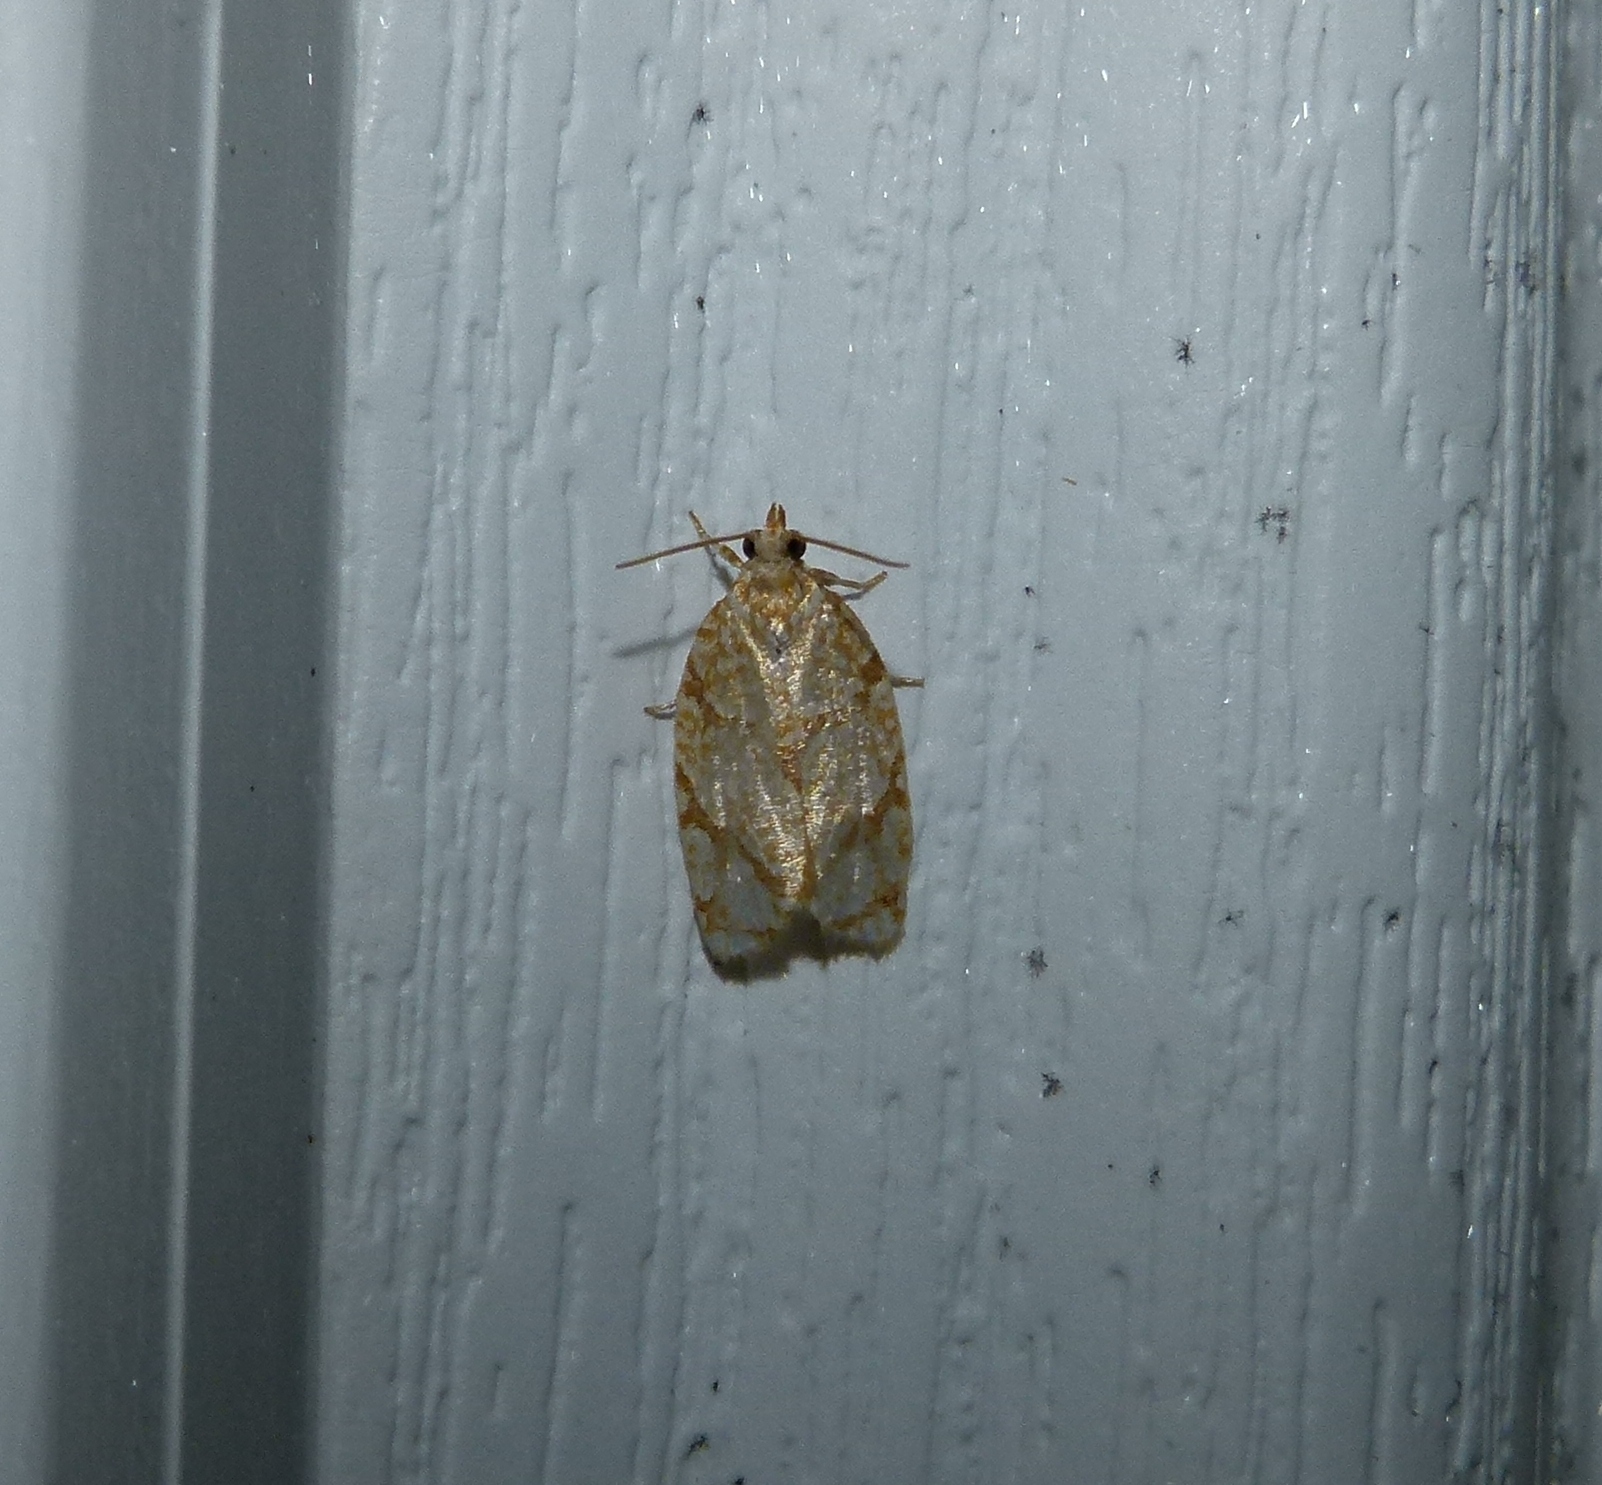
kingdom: Animalia
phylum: Arthropoda
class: Insecta
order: Lepidoptera
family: Tortricidae
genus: Argyrotaenia
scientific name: Argyrotaenia quercifoliana
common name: Yellow-winged oak leafroller moth
